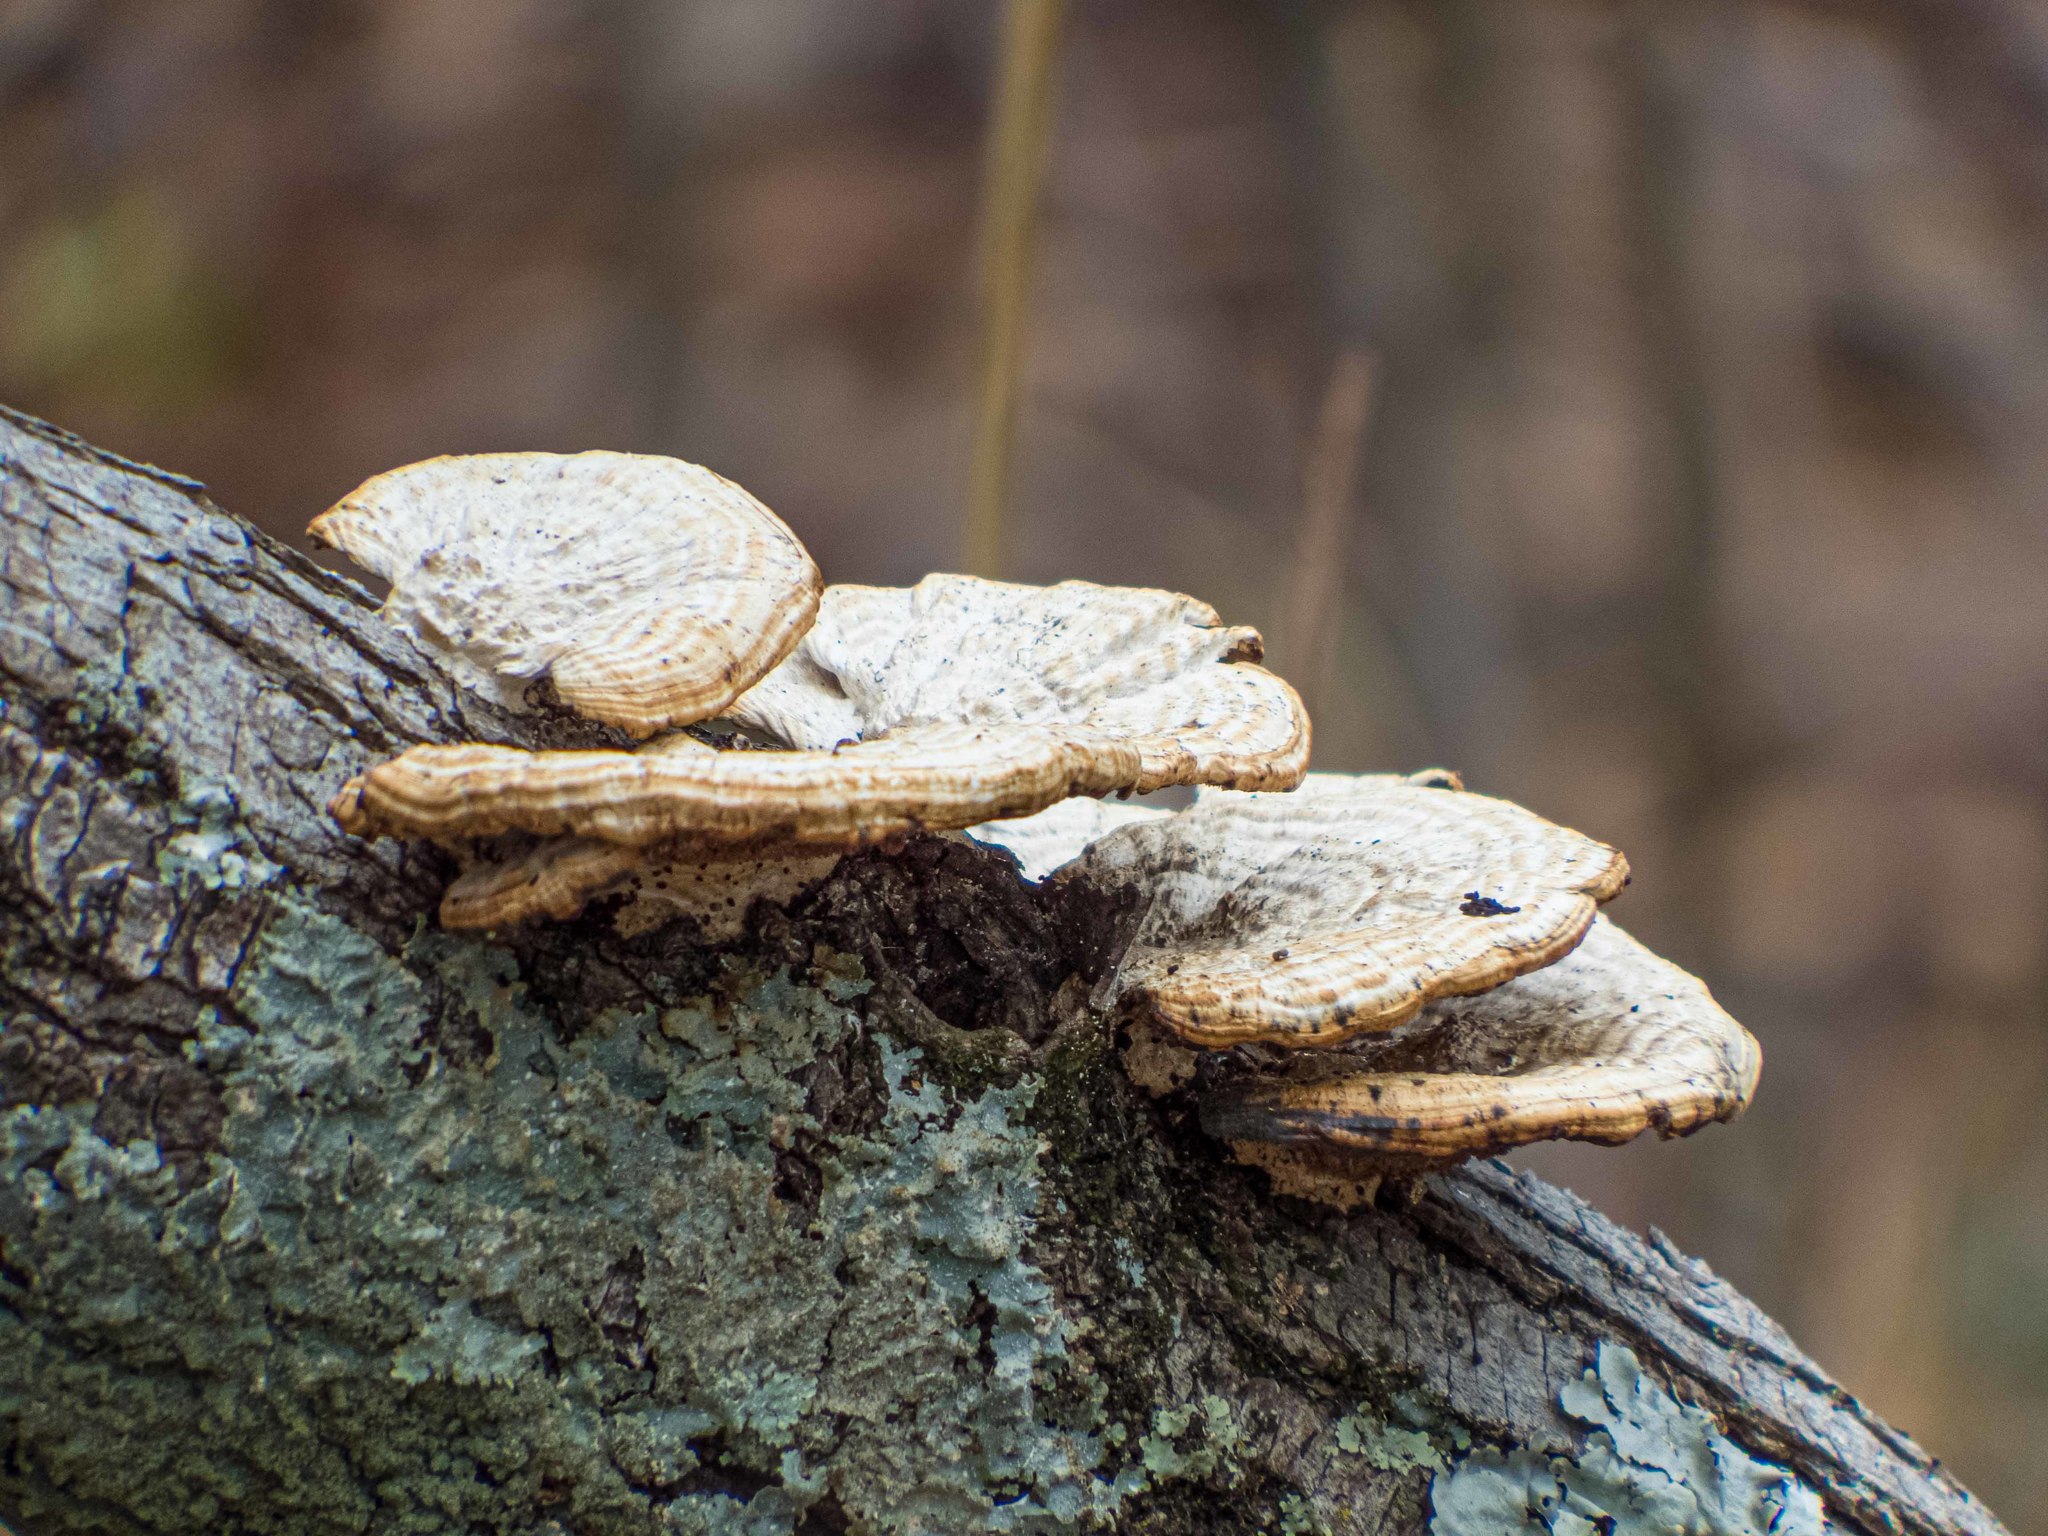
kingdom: Fungi
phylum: Basidiomycota
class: Agaricomycetes
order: Polyporales
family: Polyporaceae
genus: Daedaleopsis
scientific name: Daedaleopsis confragosa
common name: Blushing bracket
